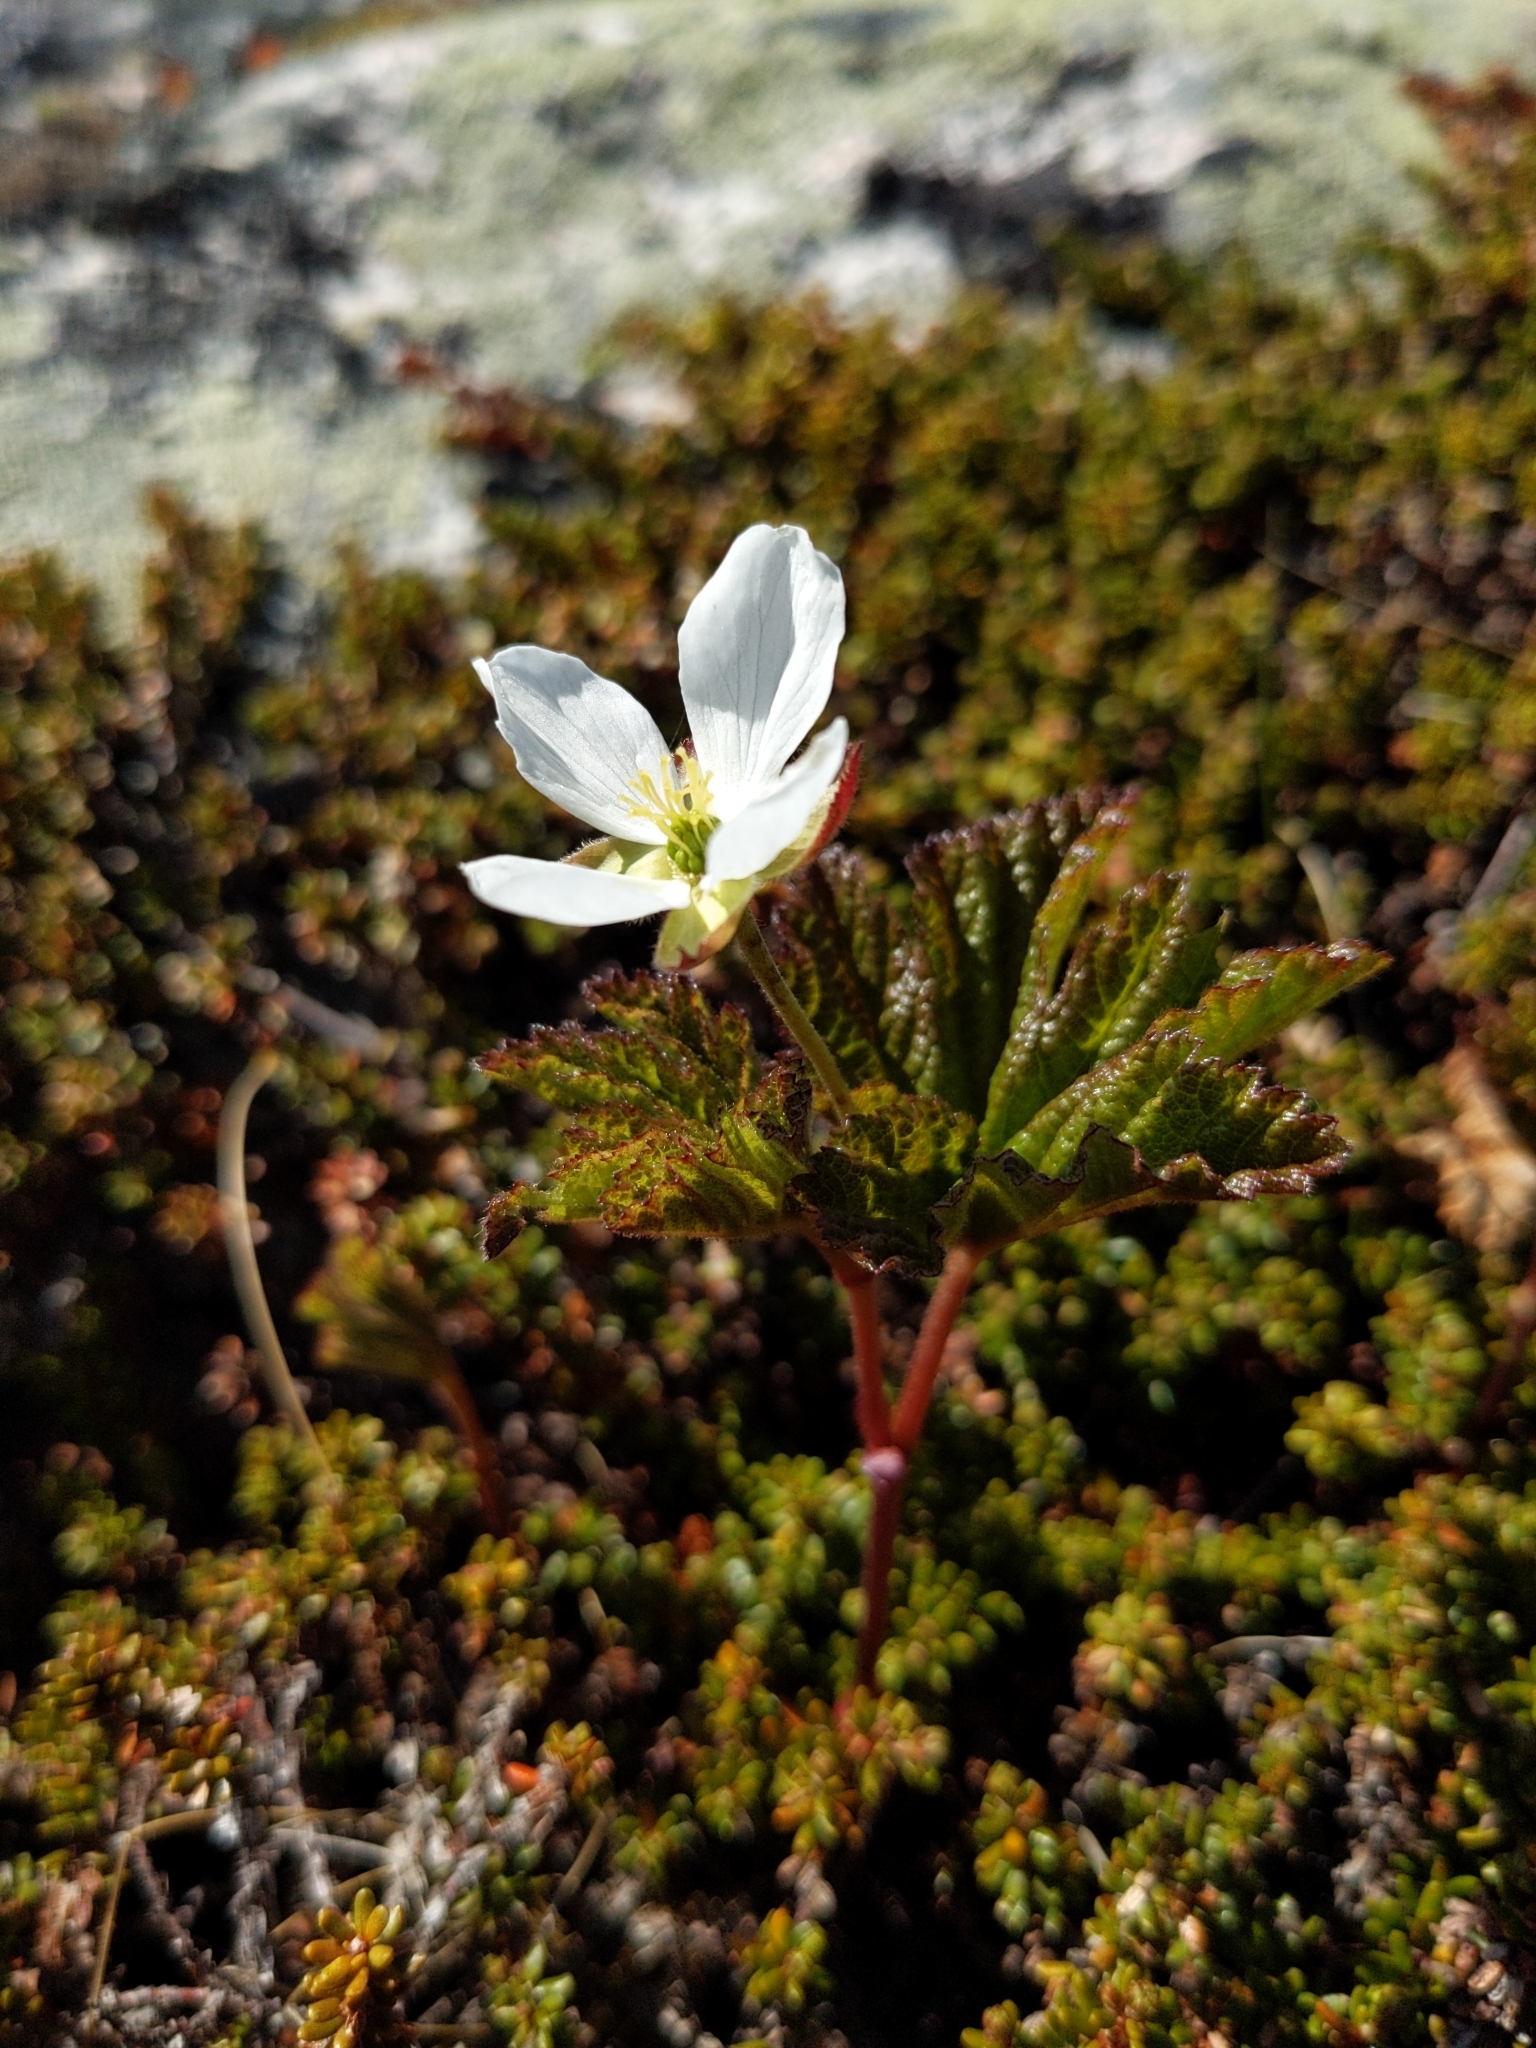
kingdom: Plantae
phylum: Tracheophyta
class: Magnoliopsida
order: Rosales
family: Rosaceae
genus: Rubus
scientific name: Rubus chamaemorus
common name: Cloudberry
